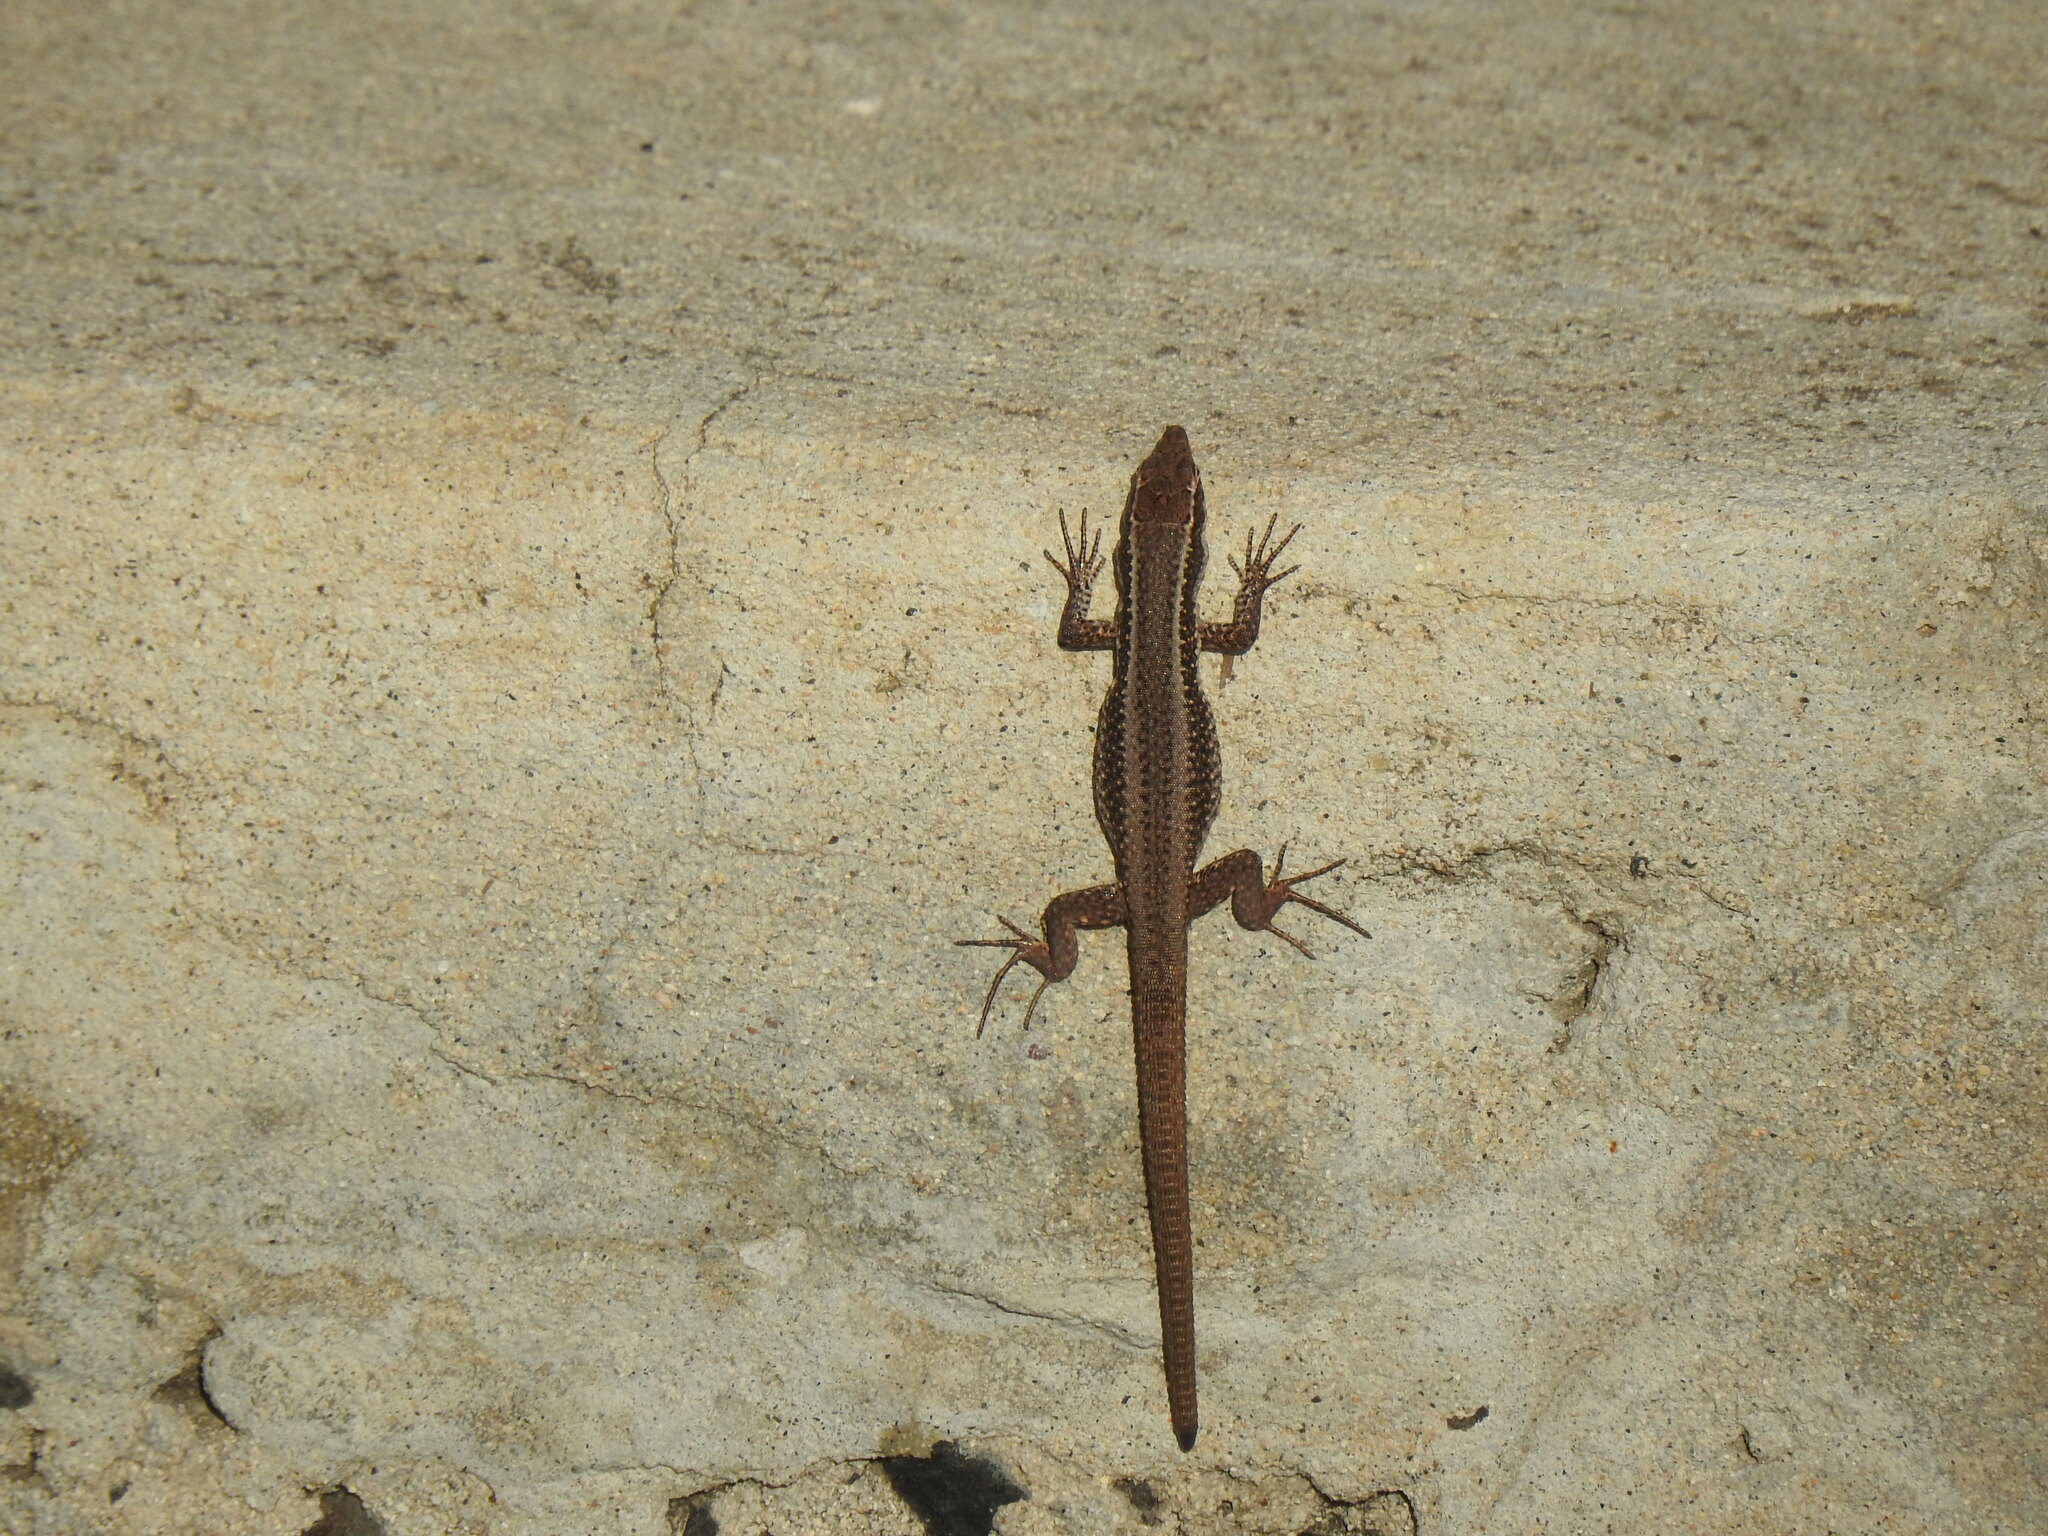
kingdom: Animalia
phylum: Chordata
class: Squamata
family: Lacertidae
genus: Teira
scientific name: Teira dugesii
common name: Madeira lizard
